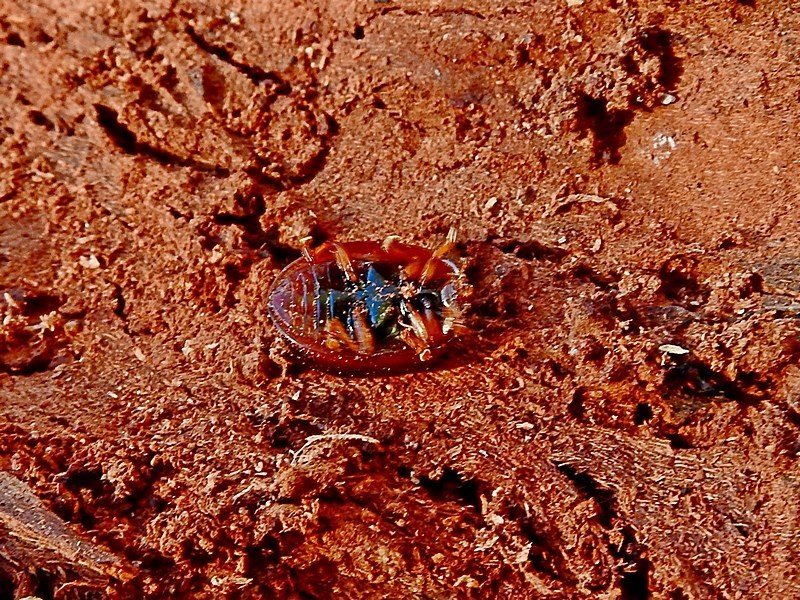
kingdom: Animalia
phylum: Arthropoda
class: Insecta
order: Coleoptera
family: Chrysomelidae
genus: Dicranosterna
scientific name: Dicranosterna
